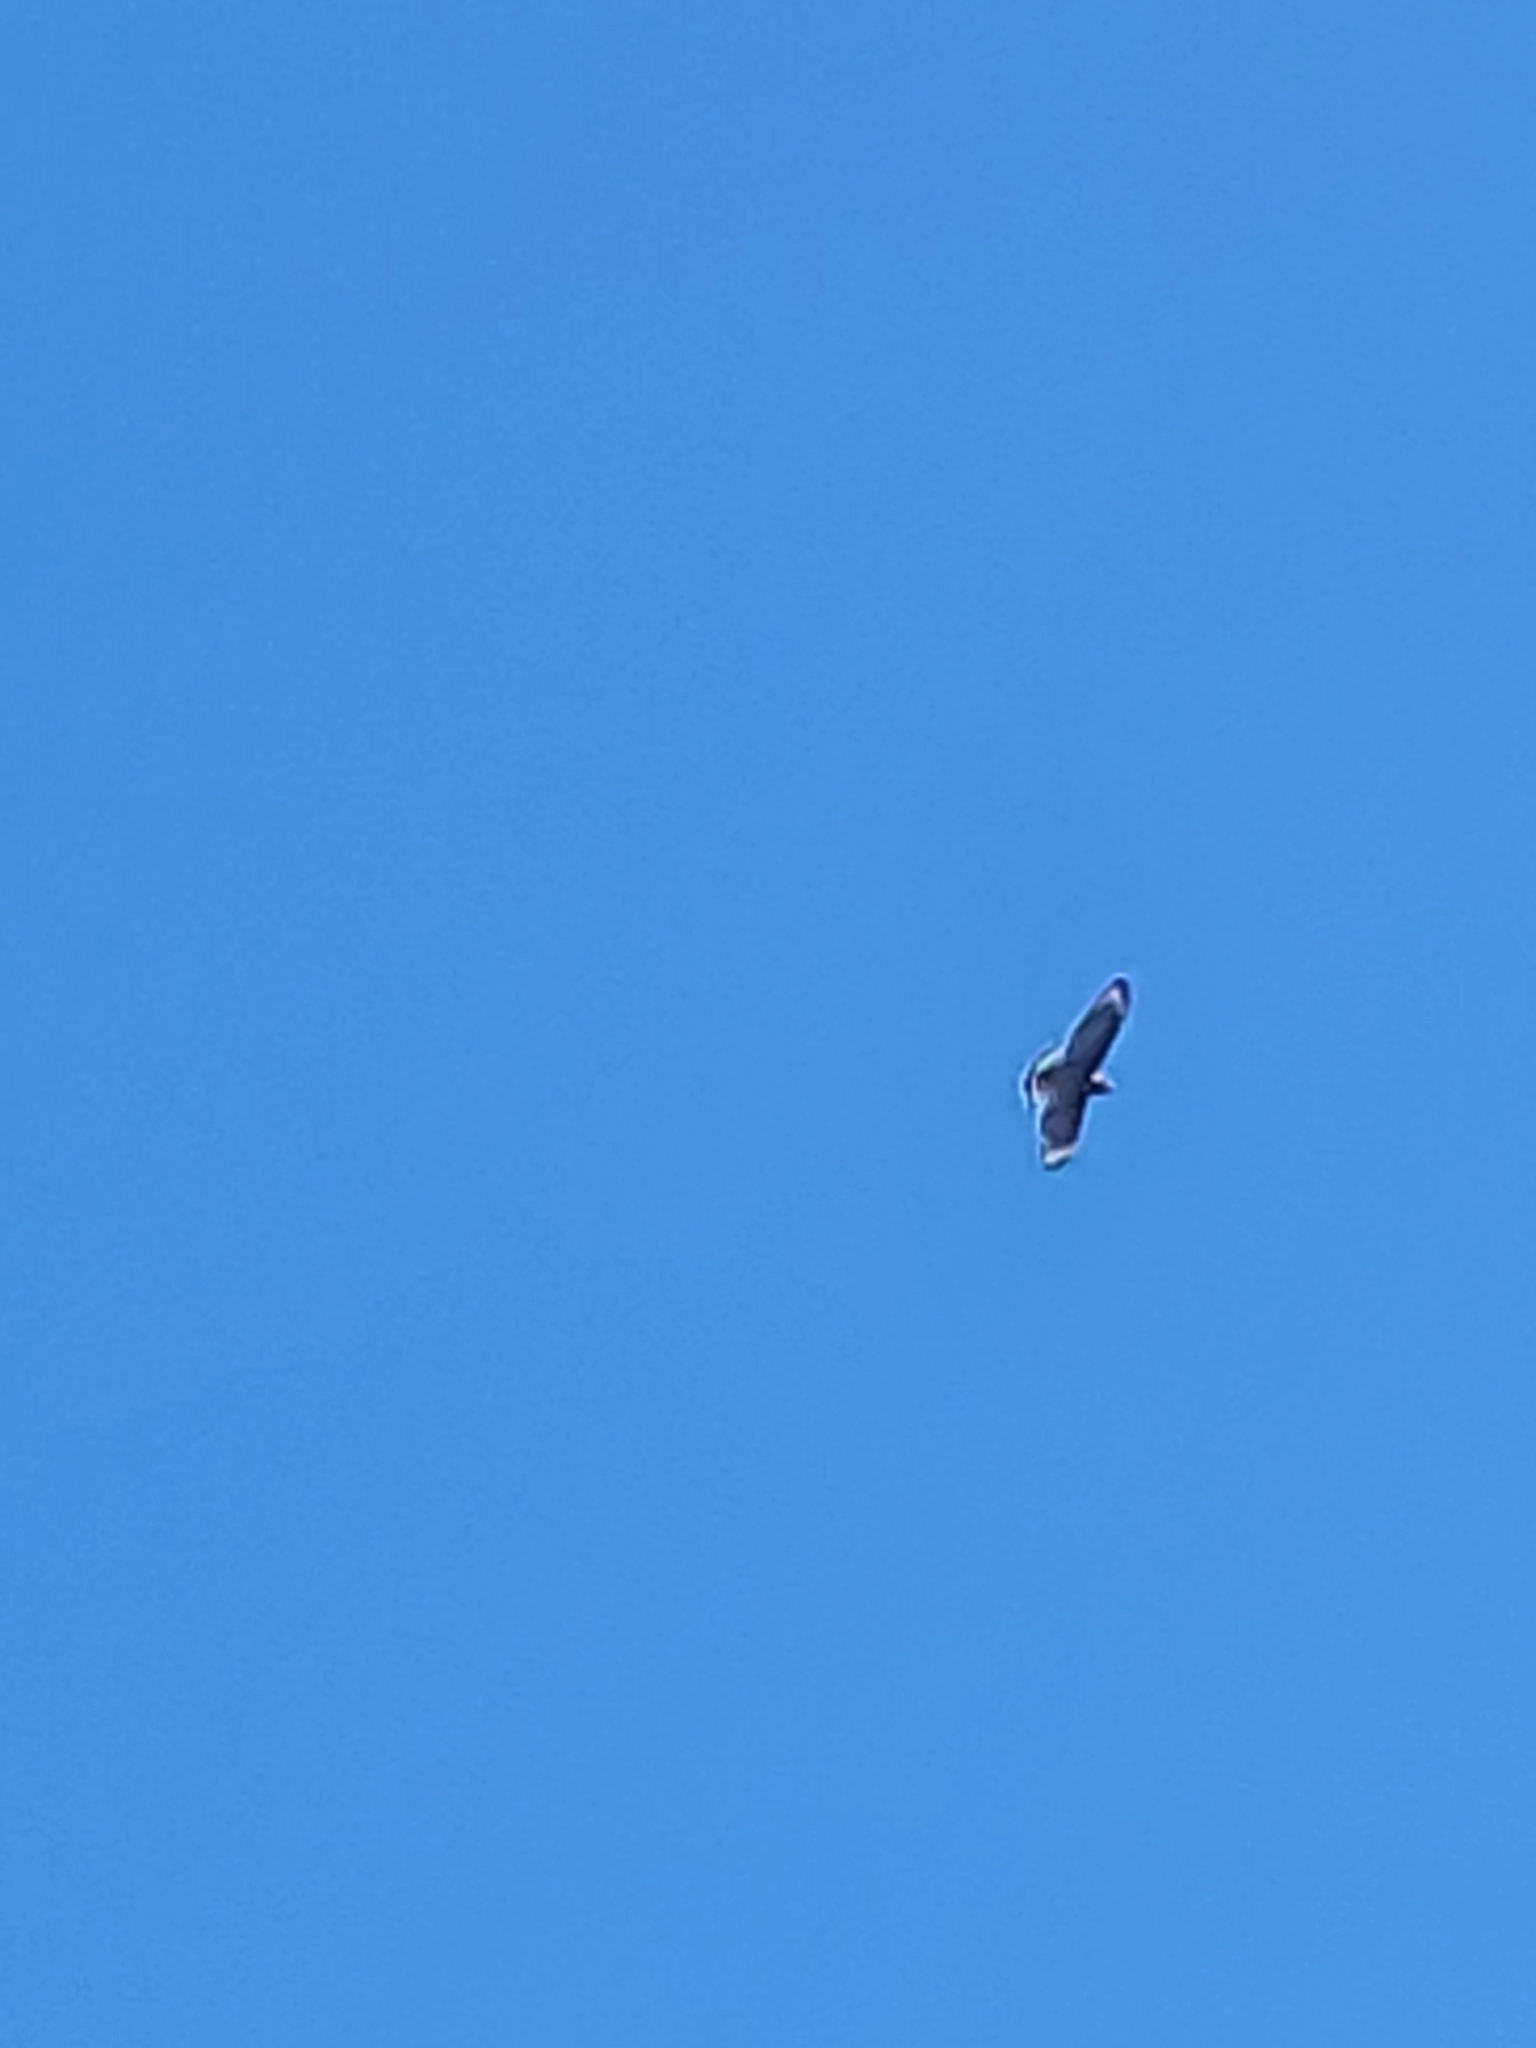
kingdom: Animalia
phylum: Chordata
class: Aves
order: Accipitriformes
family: Accipitridae
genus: Buteo
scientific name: Buteo lineatus
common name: Red-shouldered hawk
